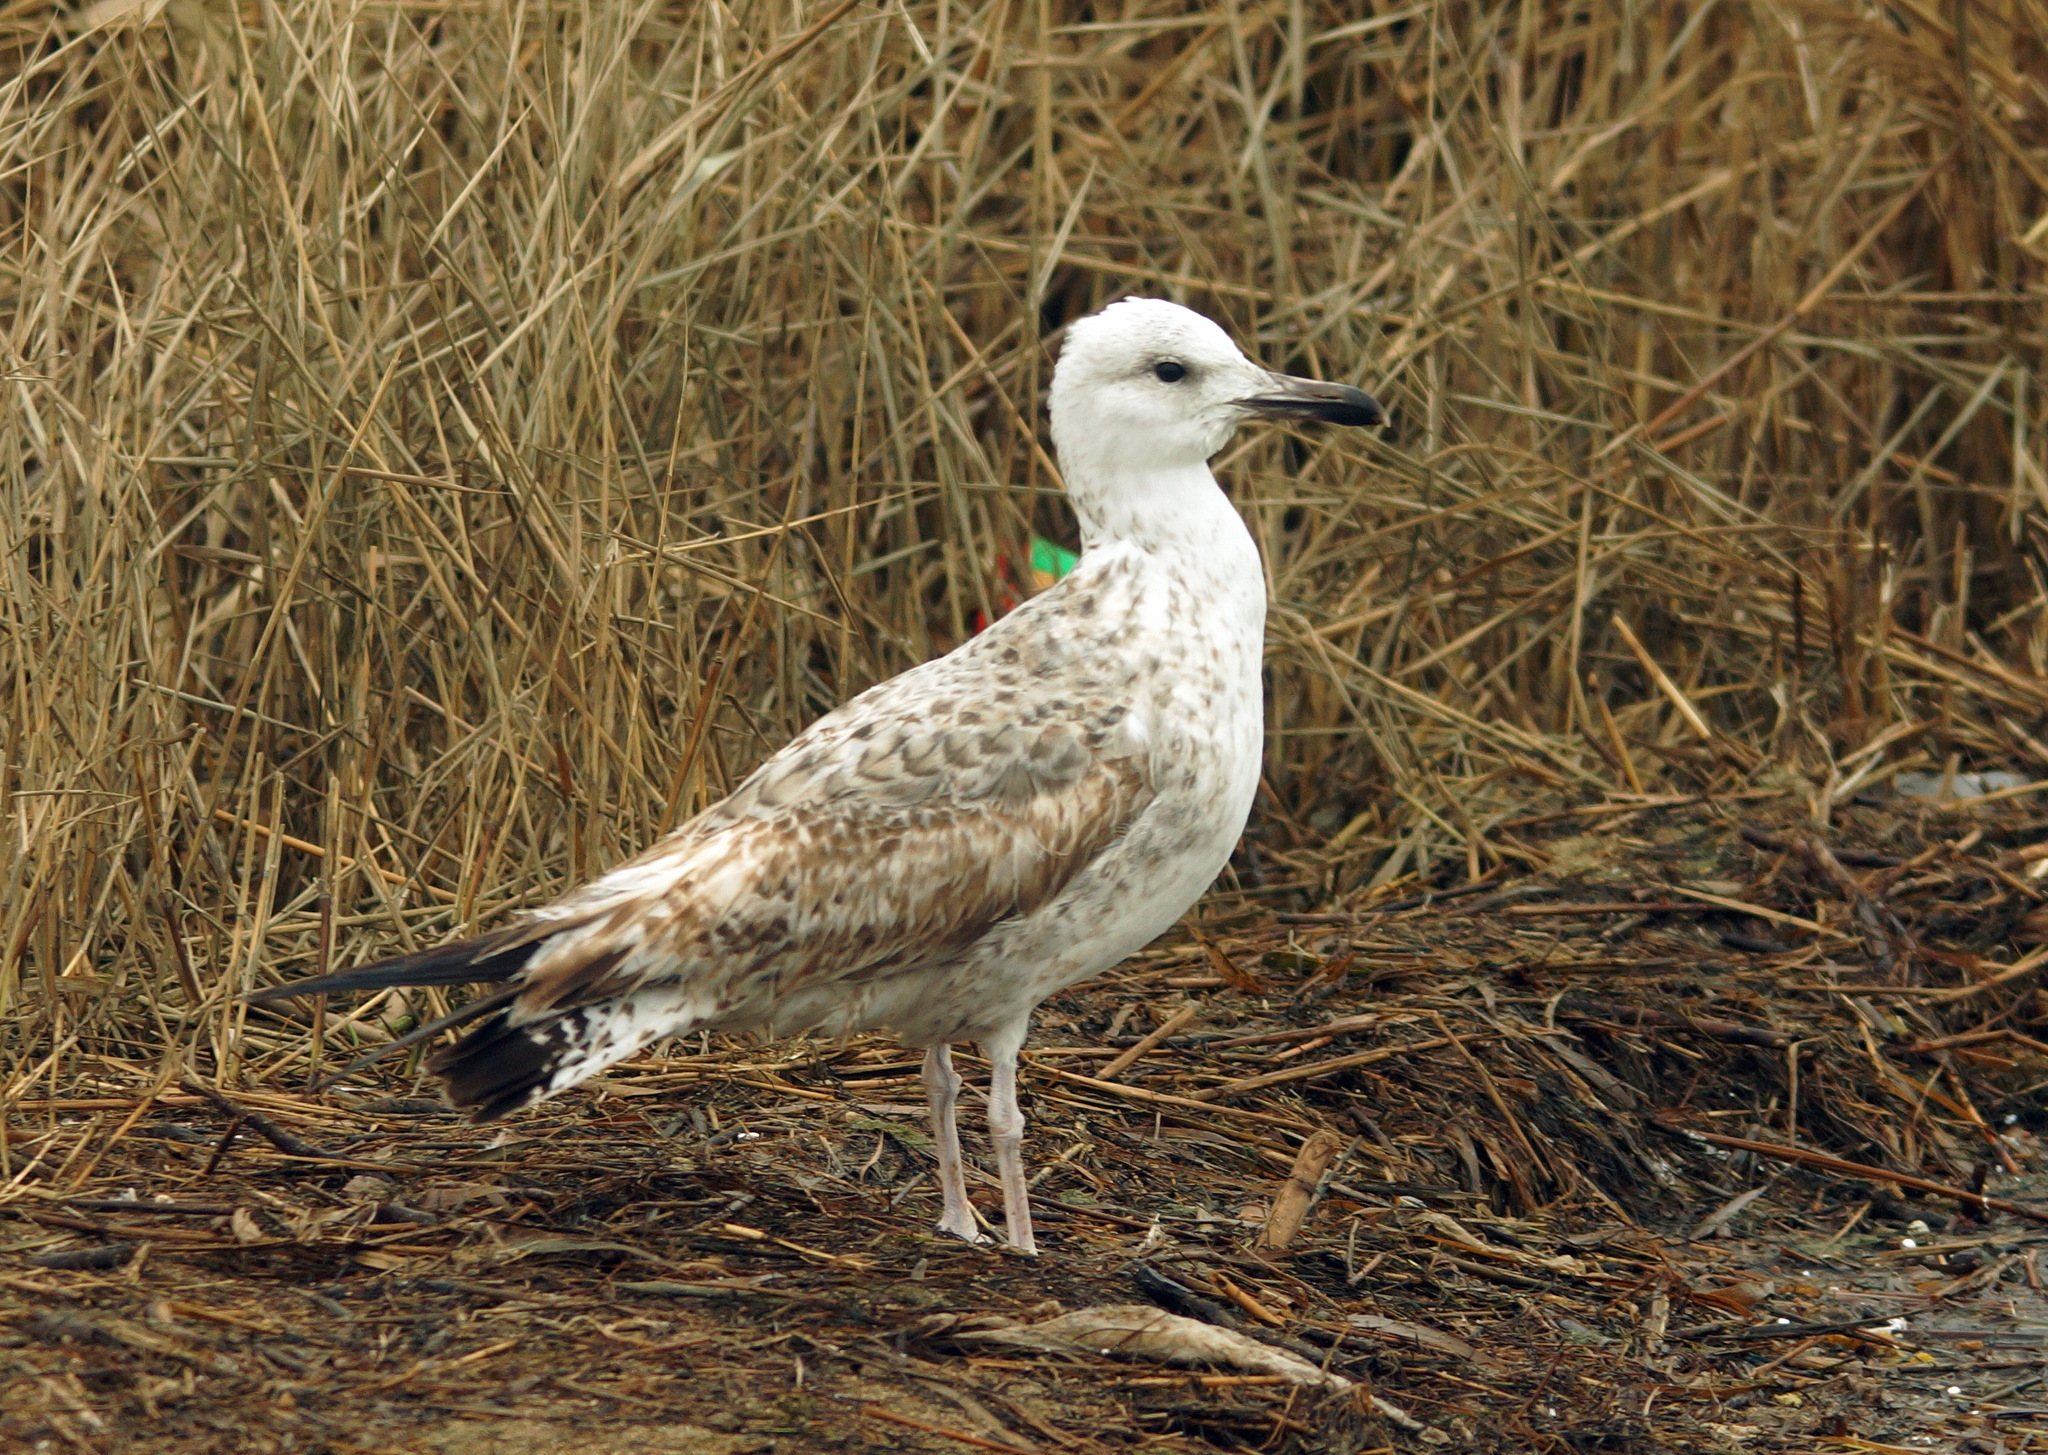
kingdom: Animalia
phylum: Chordata
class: Aves
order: Charadriiformes
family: Laridae
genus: Larus
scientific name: Larus cachinnans
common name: Caspian gull
